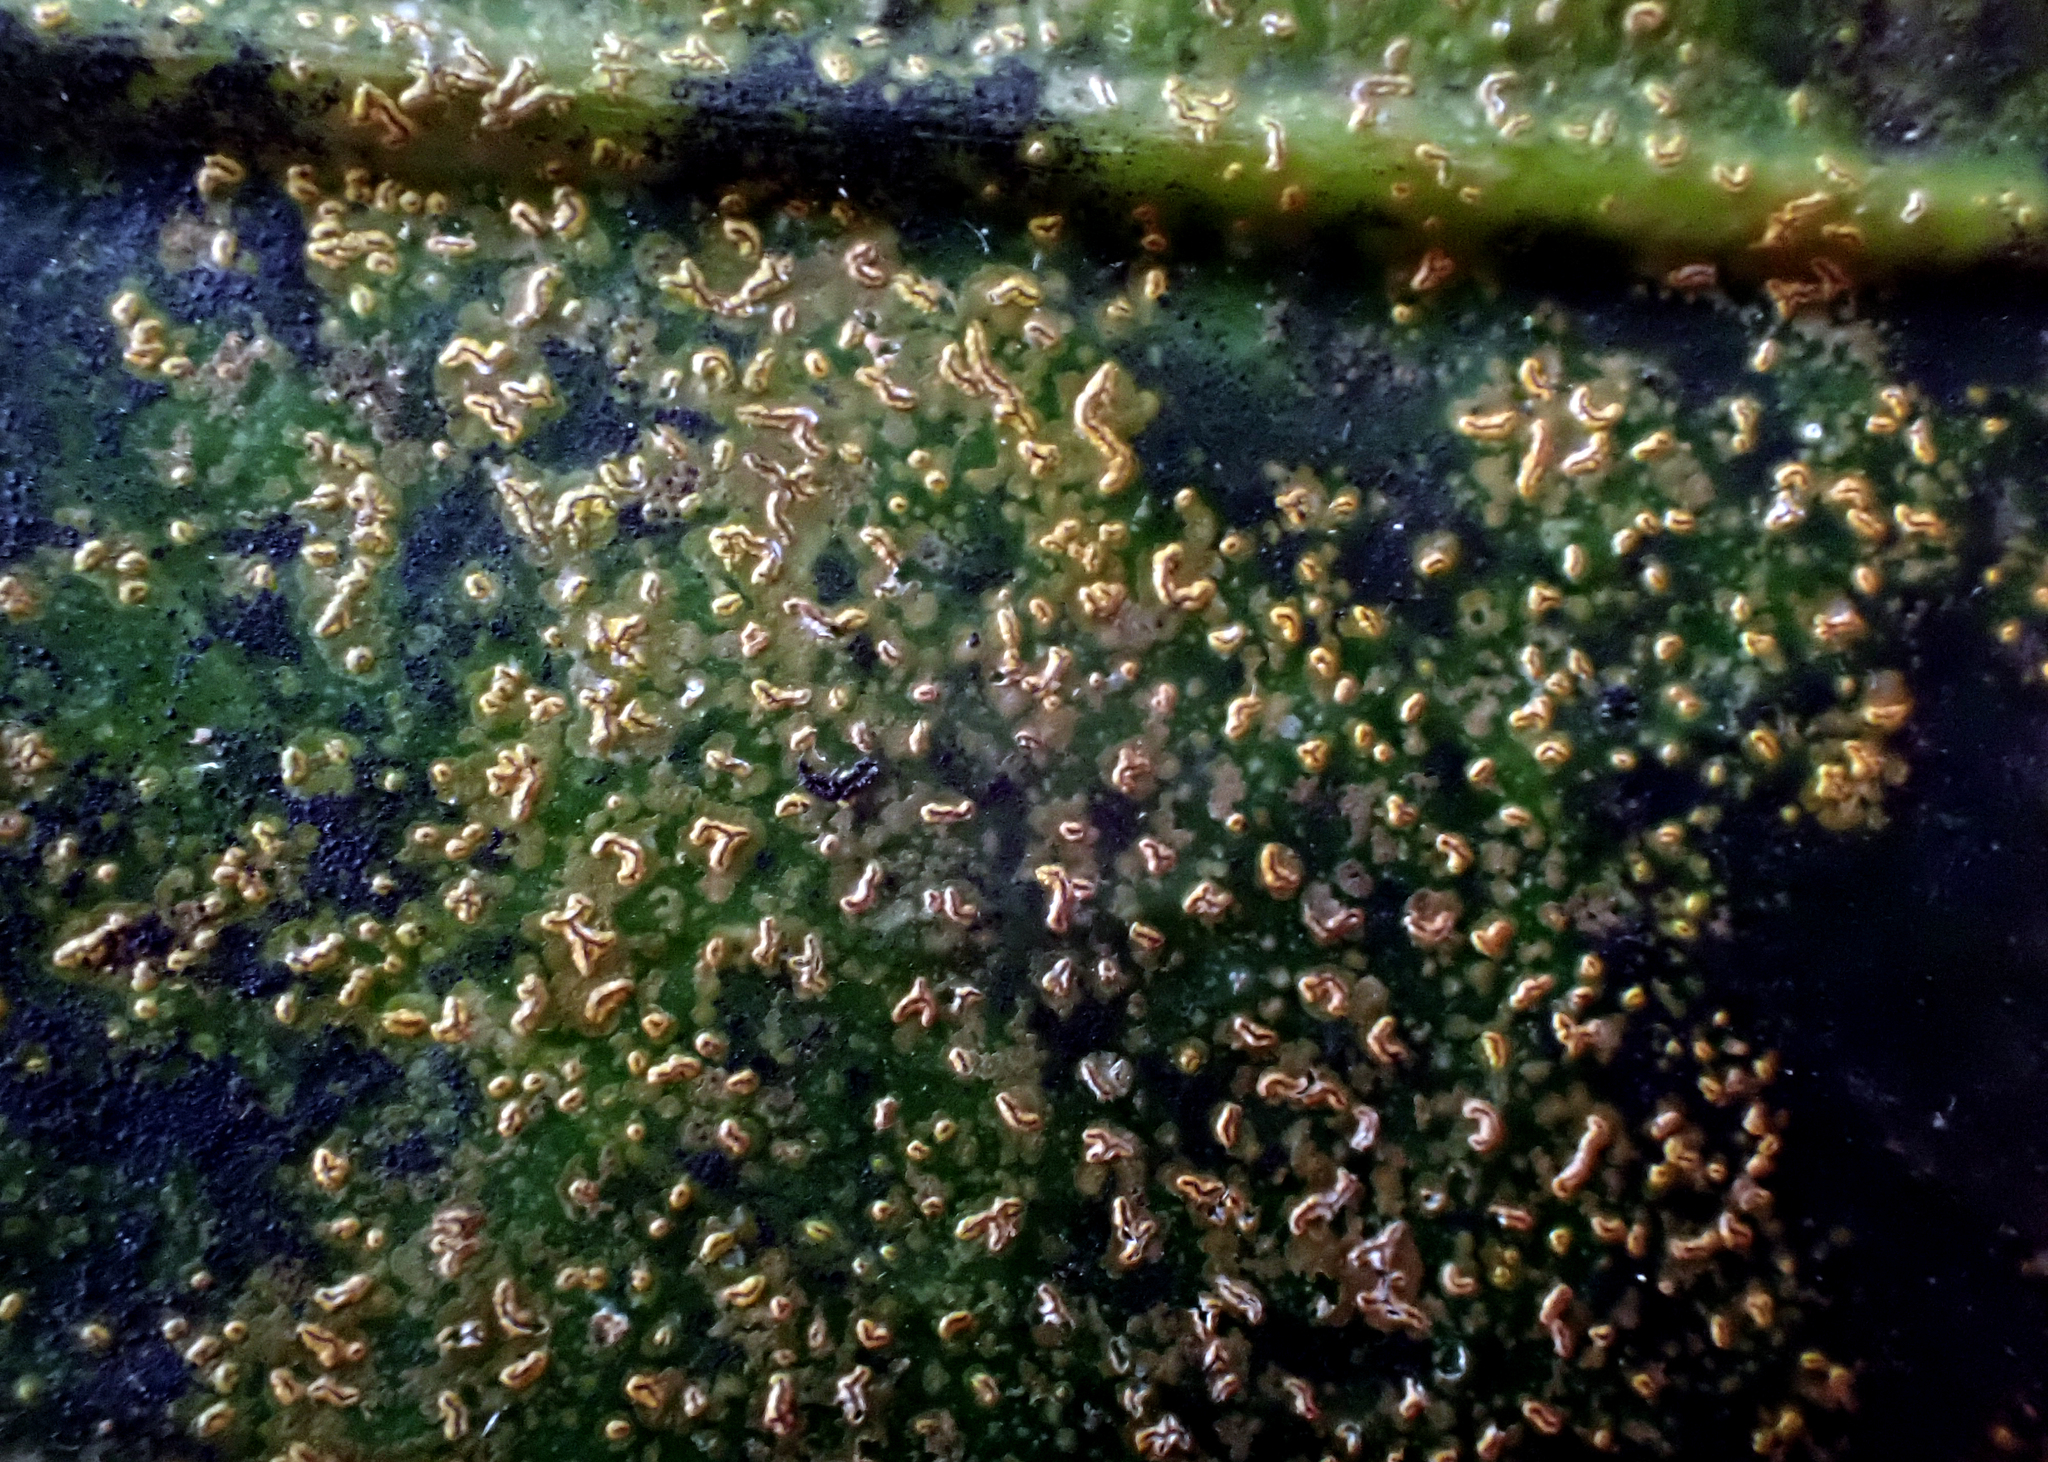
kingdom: Fungi
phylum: Ascomycota
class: Arthoniomycetes
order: Arthoniales
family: Roccellaceae
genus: Enterographa
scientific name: Enterographa bella
